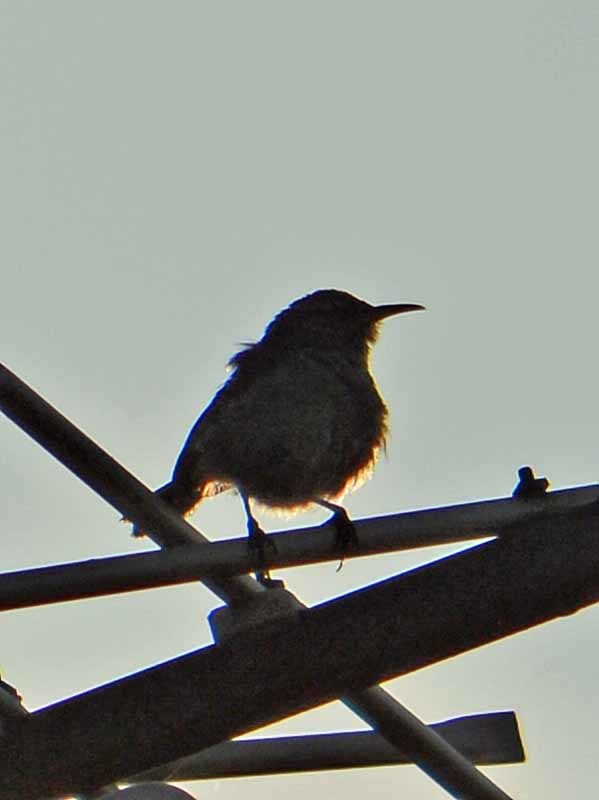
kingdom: Animalia
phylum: Chordata
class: Aves
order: Passeriformes
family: Troglodytidae
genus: Thryomanes
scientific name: Thryomanes bewickii
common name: Bewick's wren
